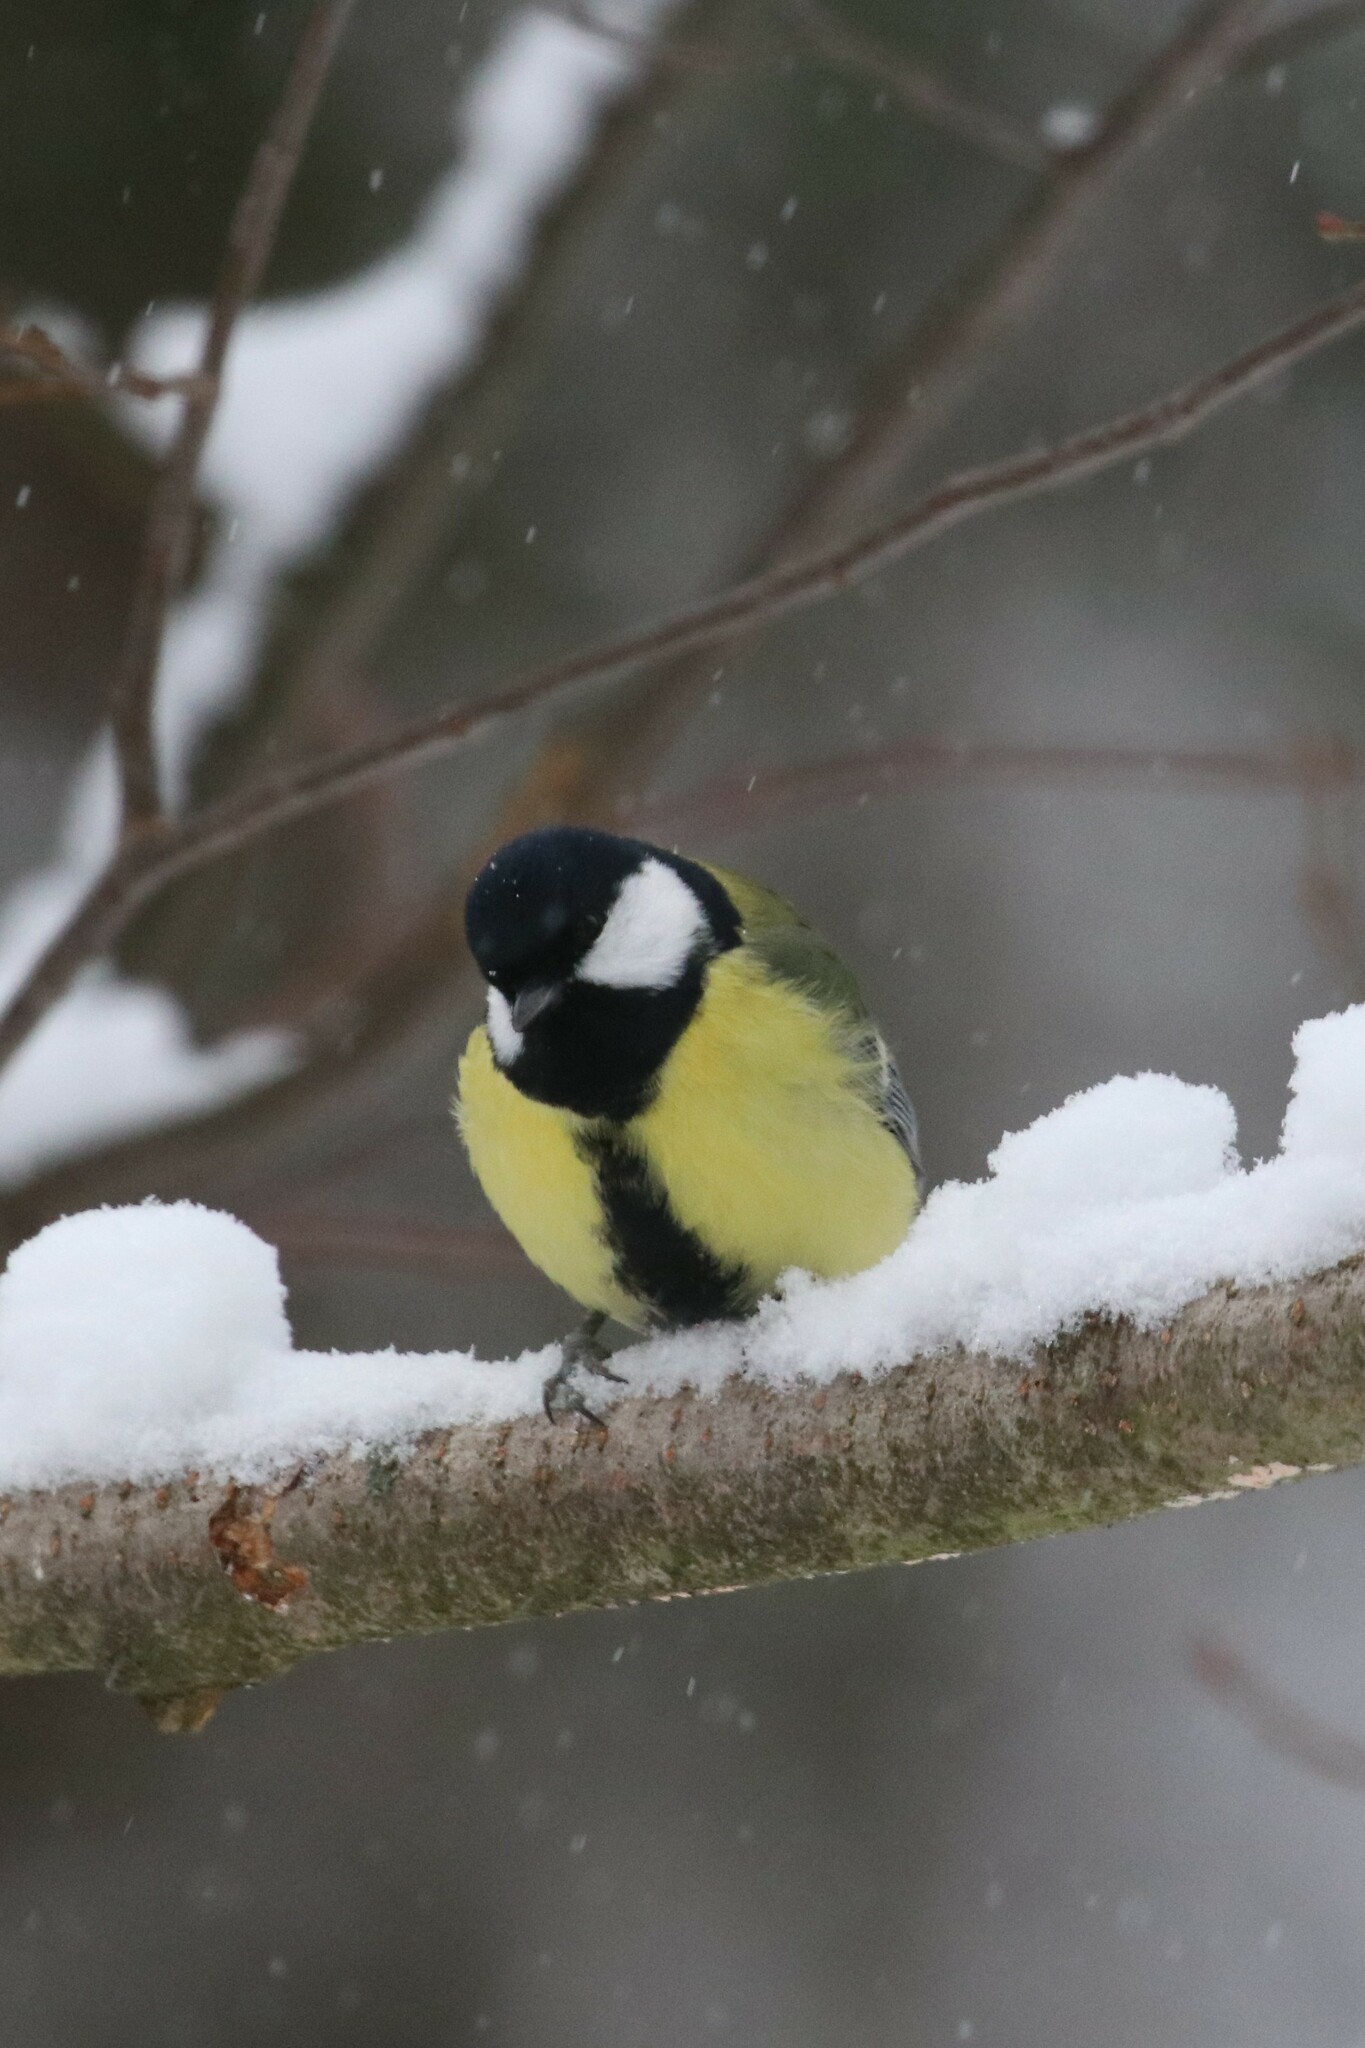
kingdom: Animalia
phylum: Chordata
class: Aves
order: Passeriformes
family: Paridae
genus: Parus
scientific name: Parus major
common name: Great tit
